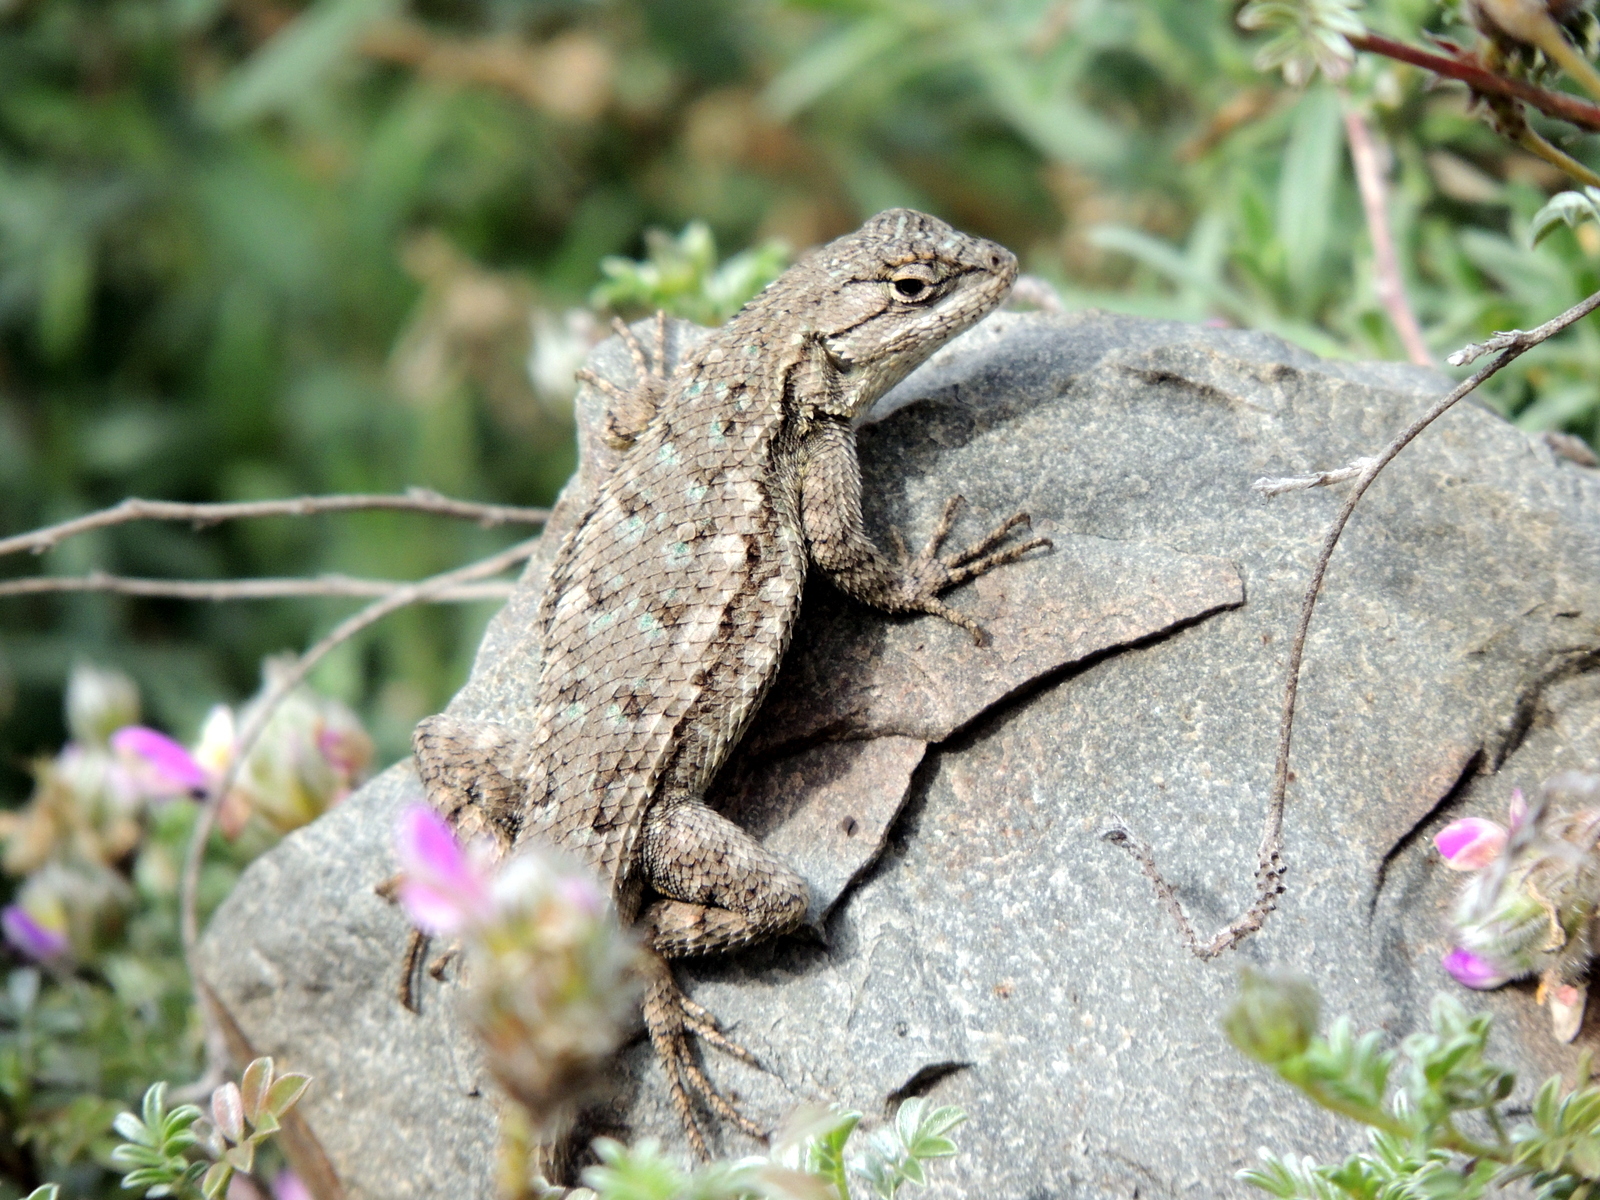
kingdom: Animalia
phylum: Chordata
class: Squamata
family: Phrynosomatidae
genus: Sceloporus
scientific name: Sceloporus occidentalis
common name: Western fence lizard
